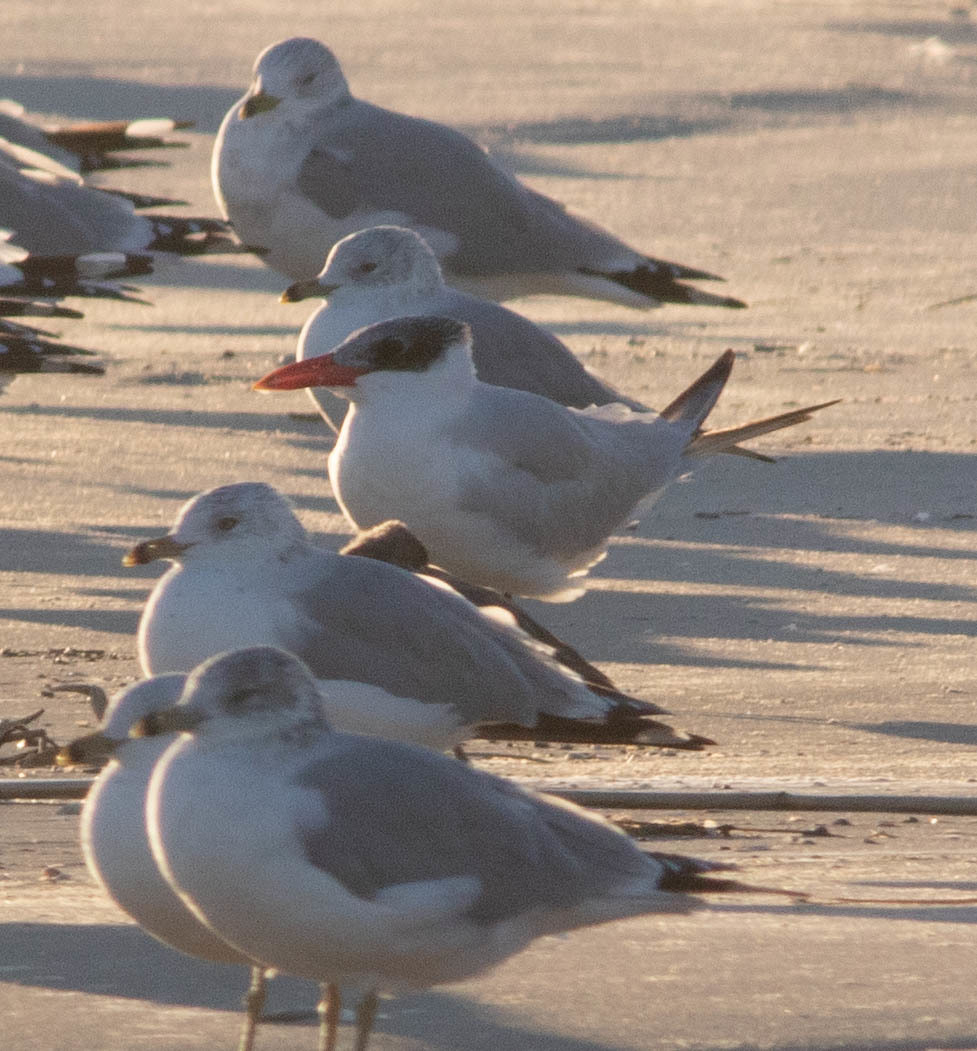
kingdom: Animalia
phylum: Chordata
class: Aves
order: Charadriiformes
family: Laridae
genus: Hydroprogne
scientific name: Hydroprogne caspia
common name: Caspian tern
